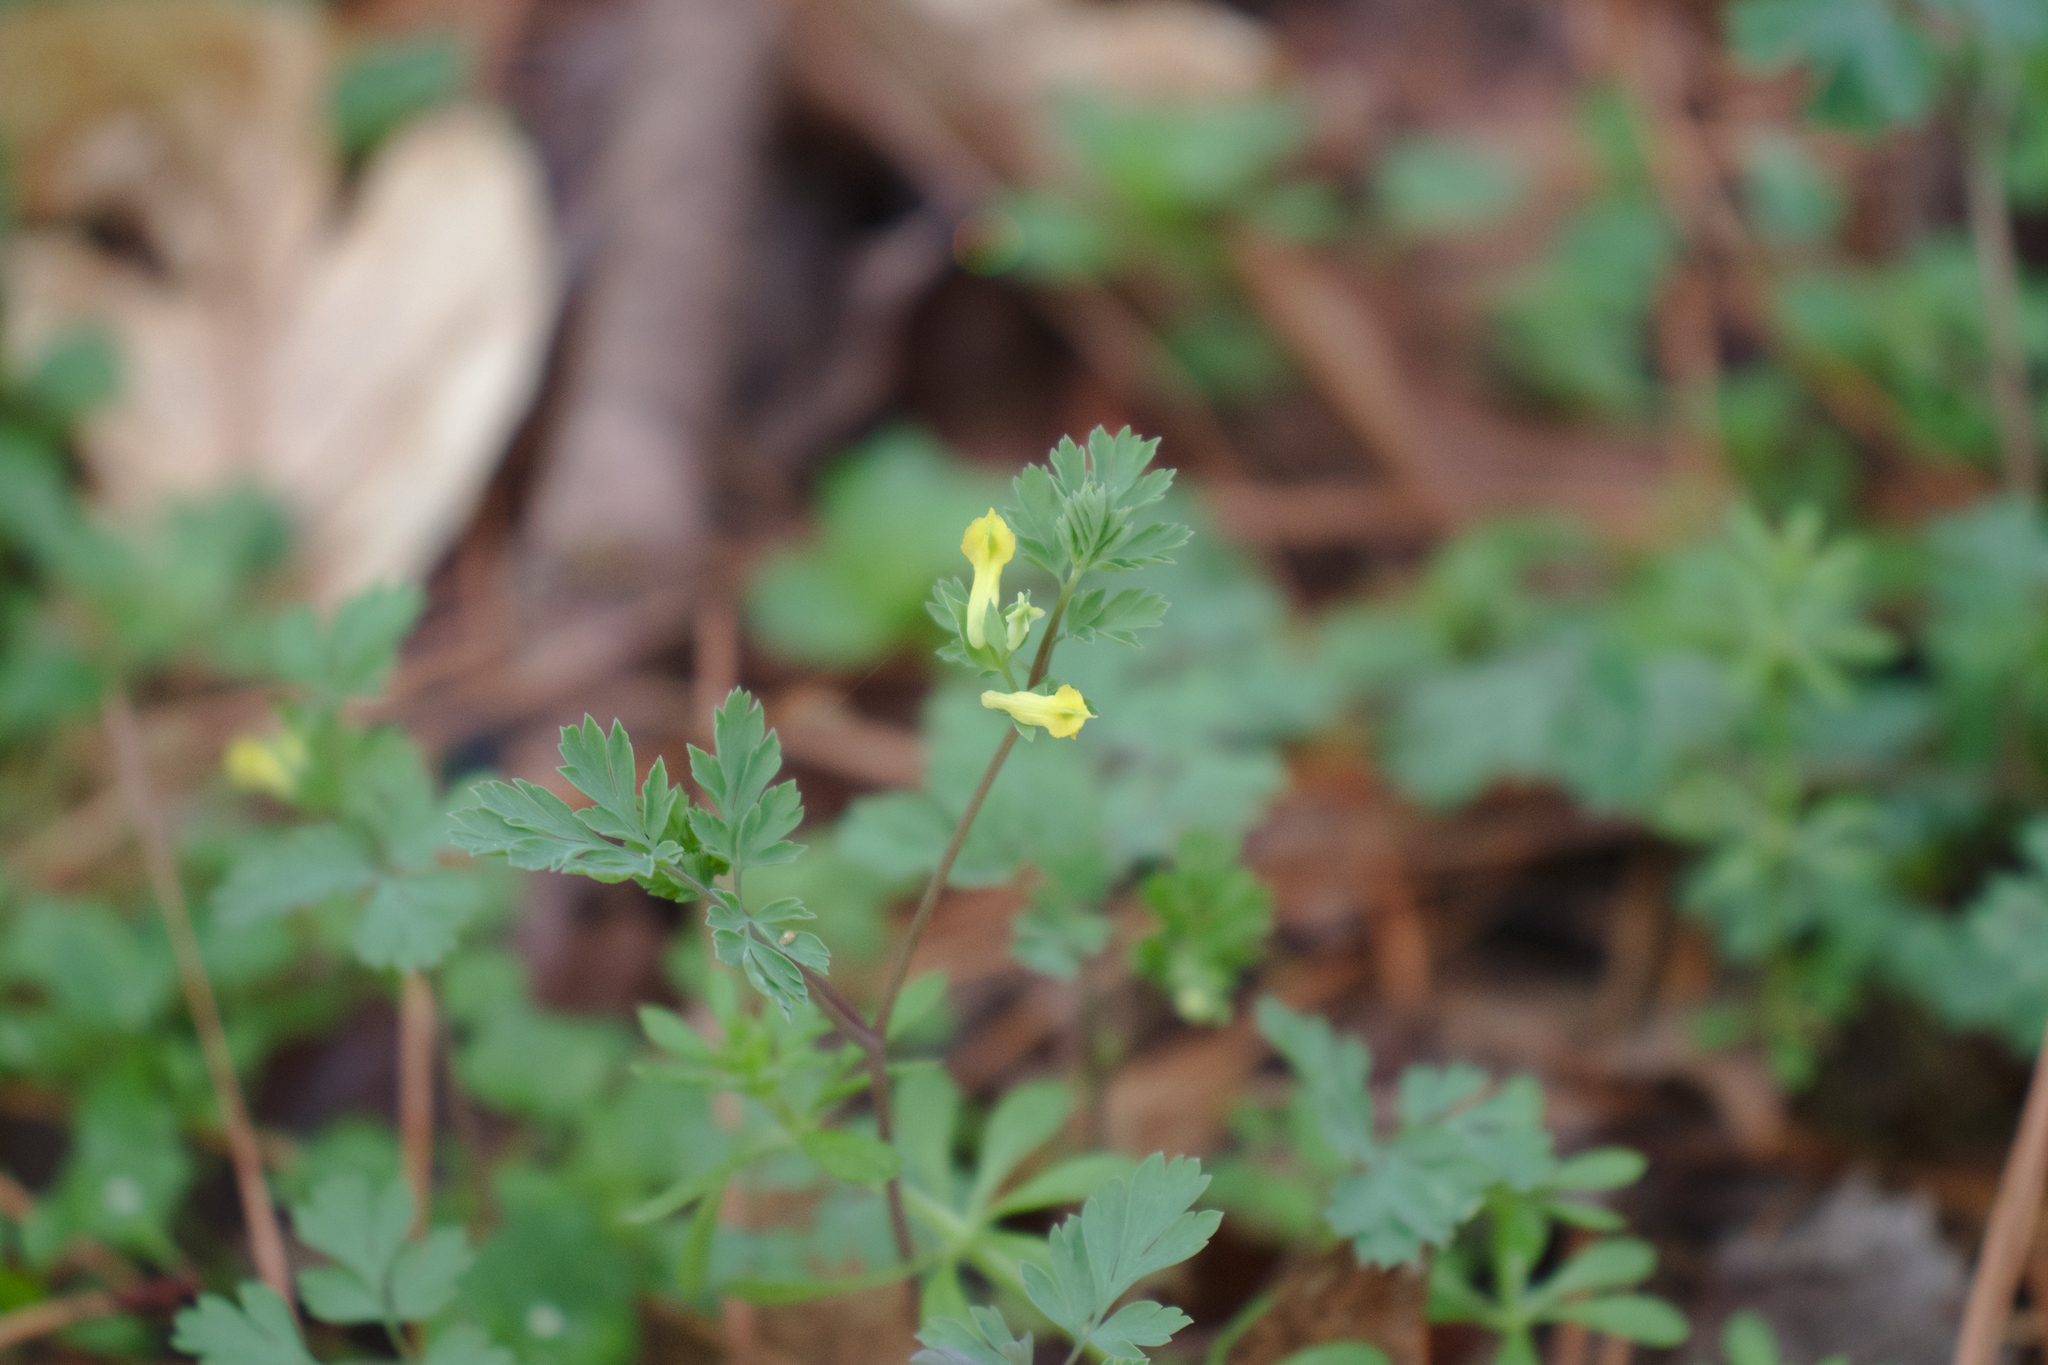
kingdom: Plantae
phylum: Tracheophyta
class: Magnoliopsida
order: Ranunculales
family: Papaveraceae
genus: Corydalis
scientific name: Corydalis flavula
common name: Yellow corydalis
